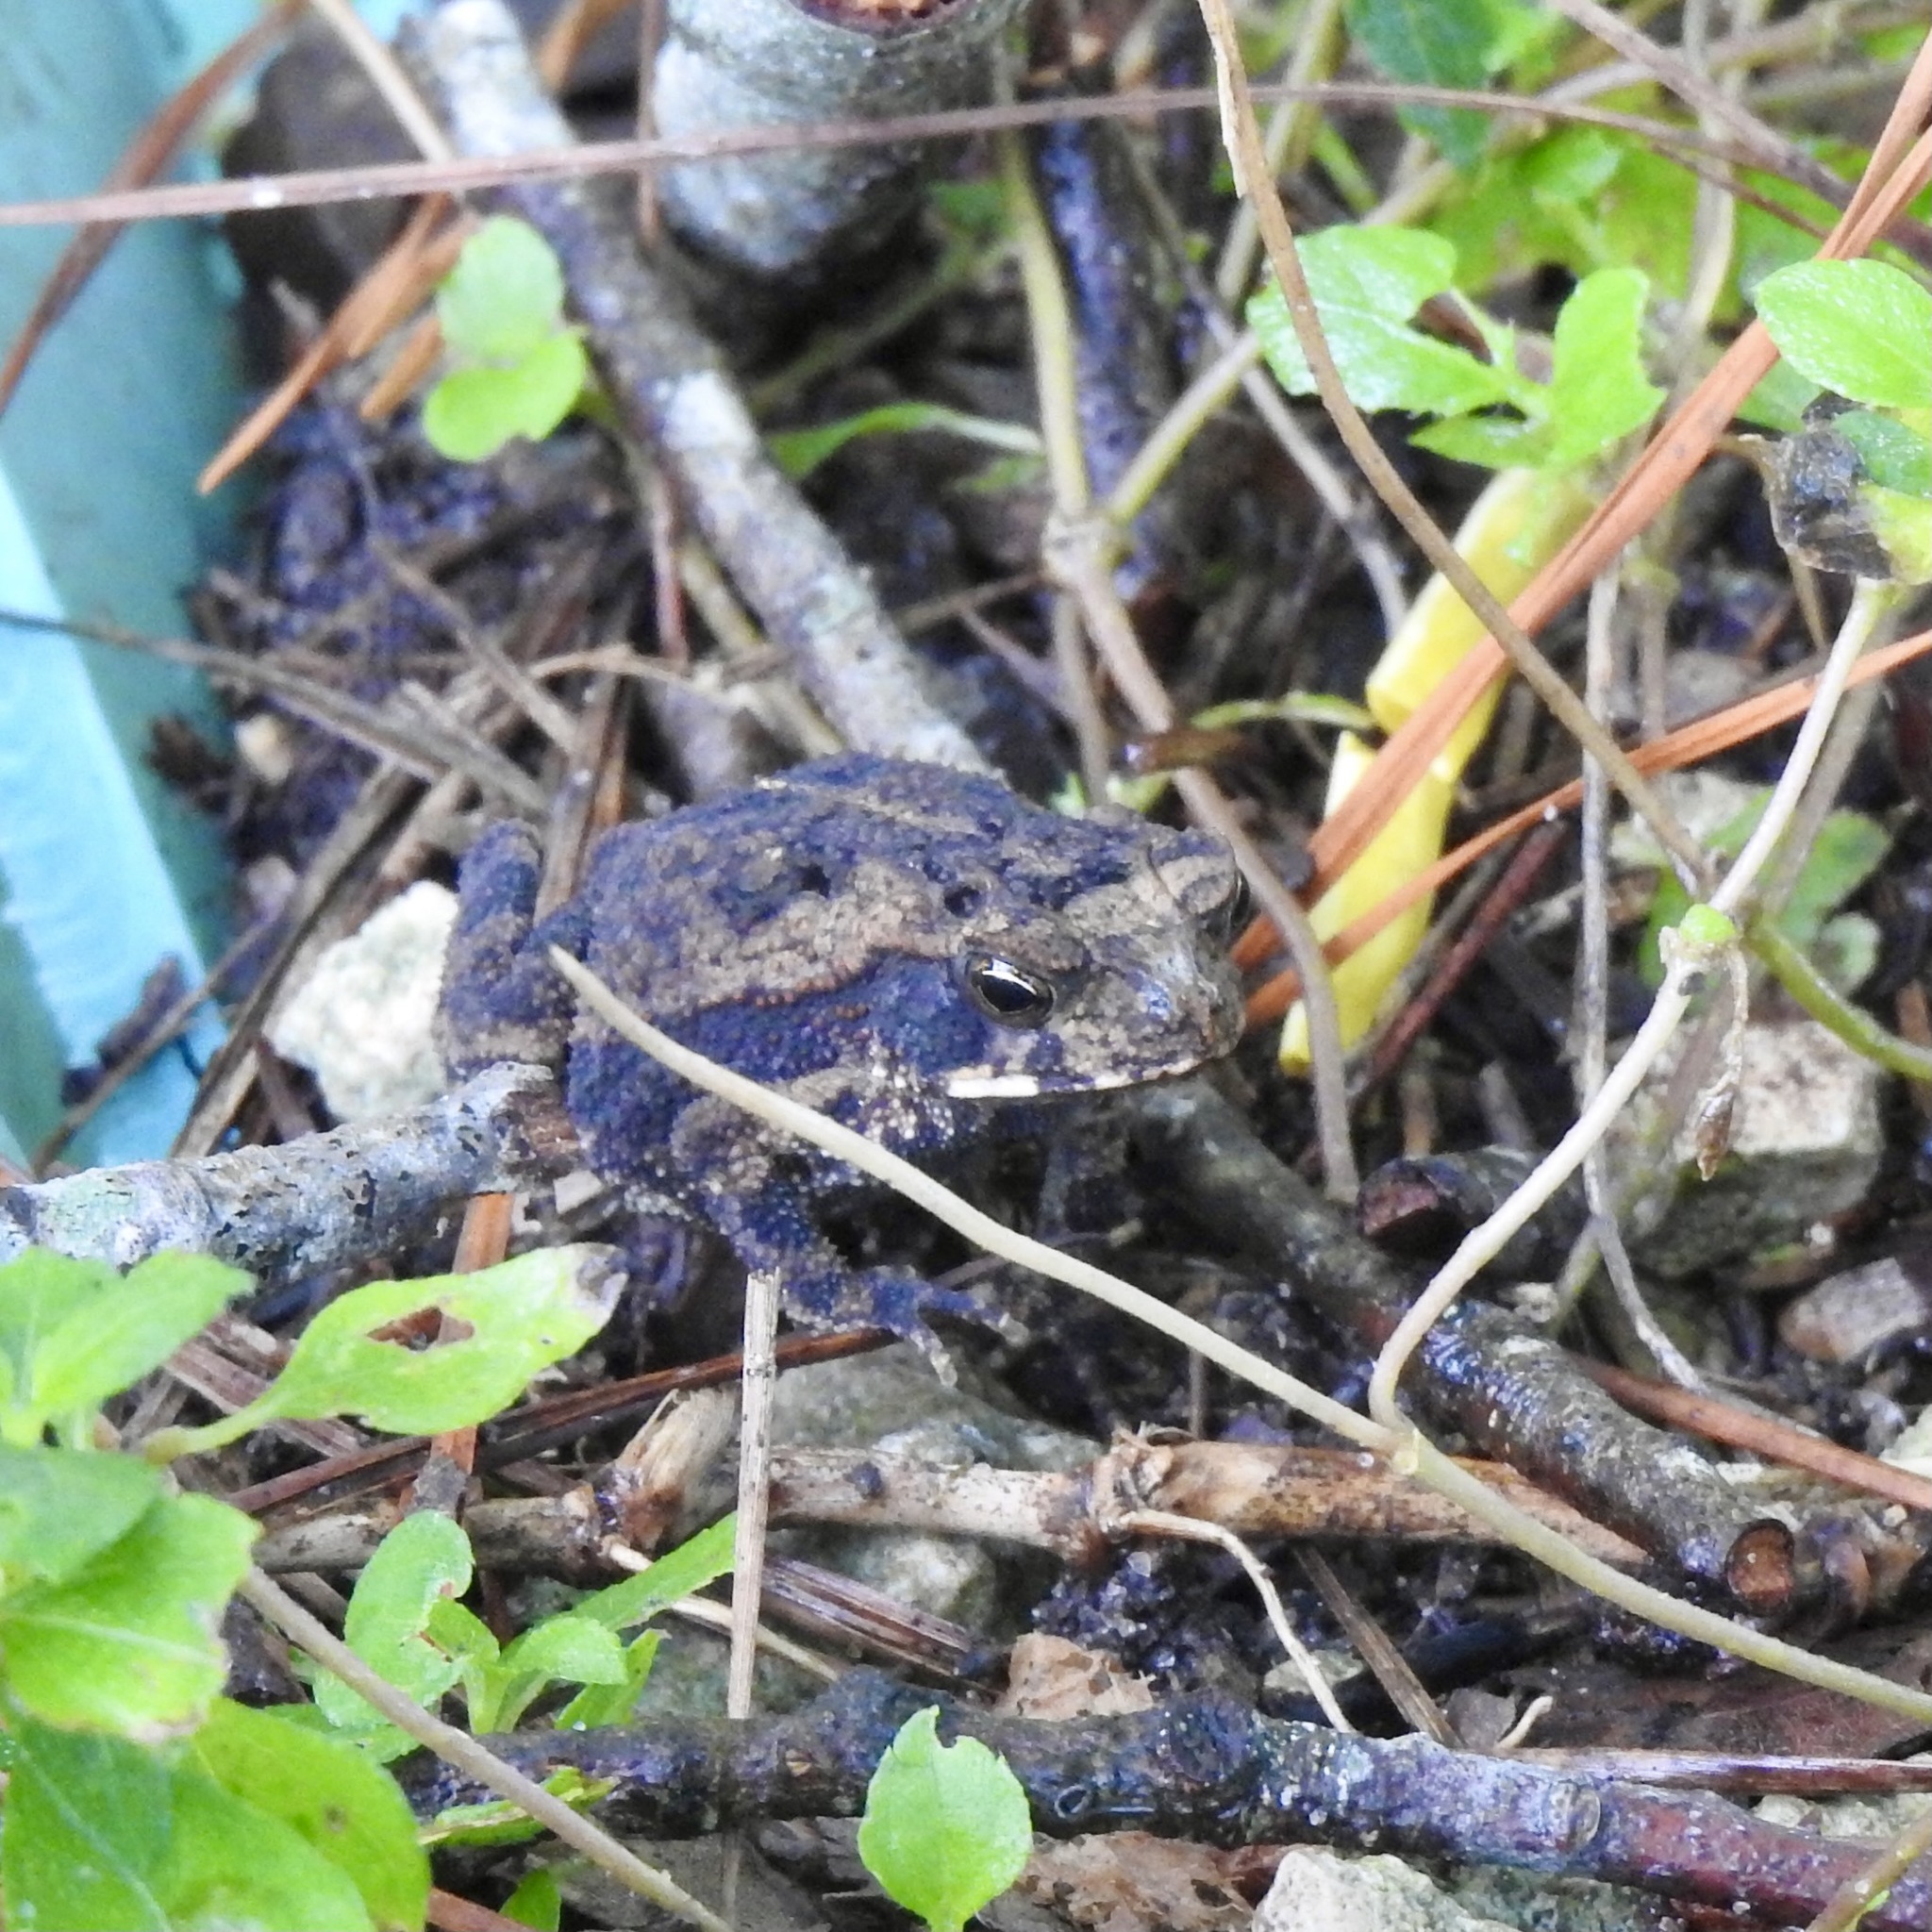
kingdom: Animalia
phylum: Chordata
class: Amphibia
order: Anura
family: Bufonidae
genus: Incilius
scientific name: Incilius nebulifer
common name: Gulf coast toad
